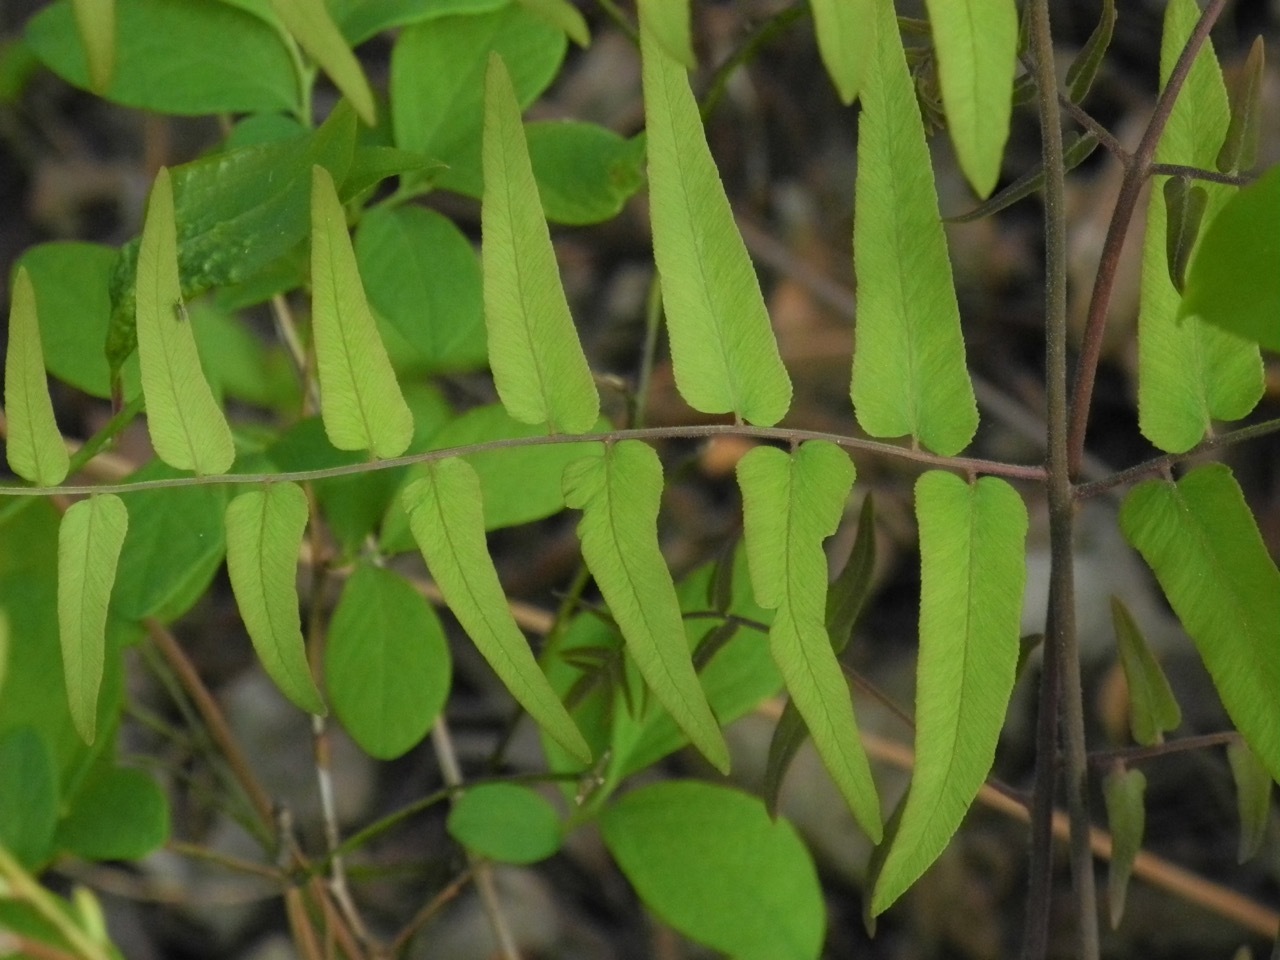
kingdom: Plantae
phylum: Tracheophyta
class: Polypodiopsida
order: Osmundales
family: Osmundaceae
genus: Osmunda
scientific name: Osmunda spectabilis
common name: American royal fern
